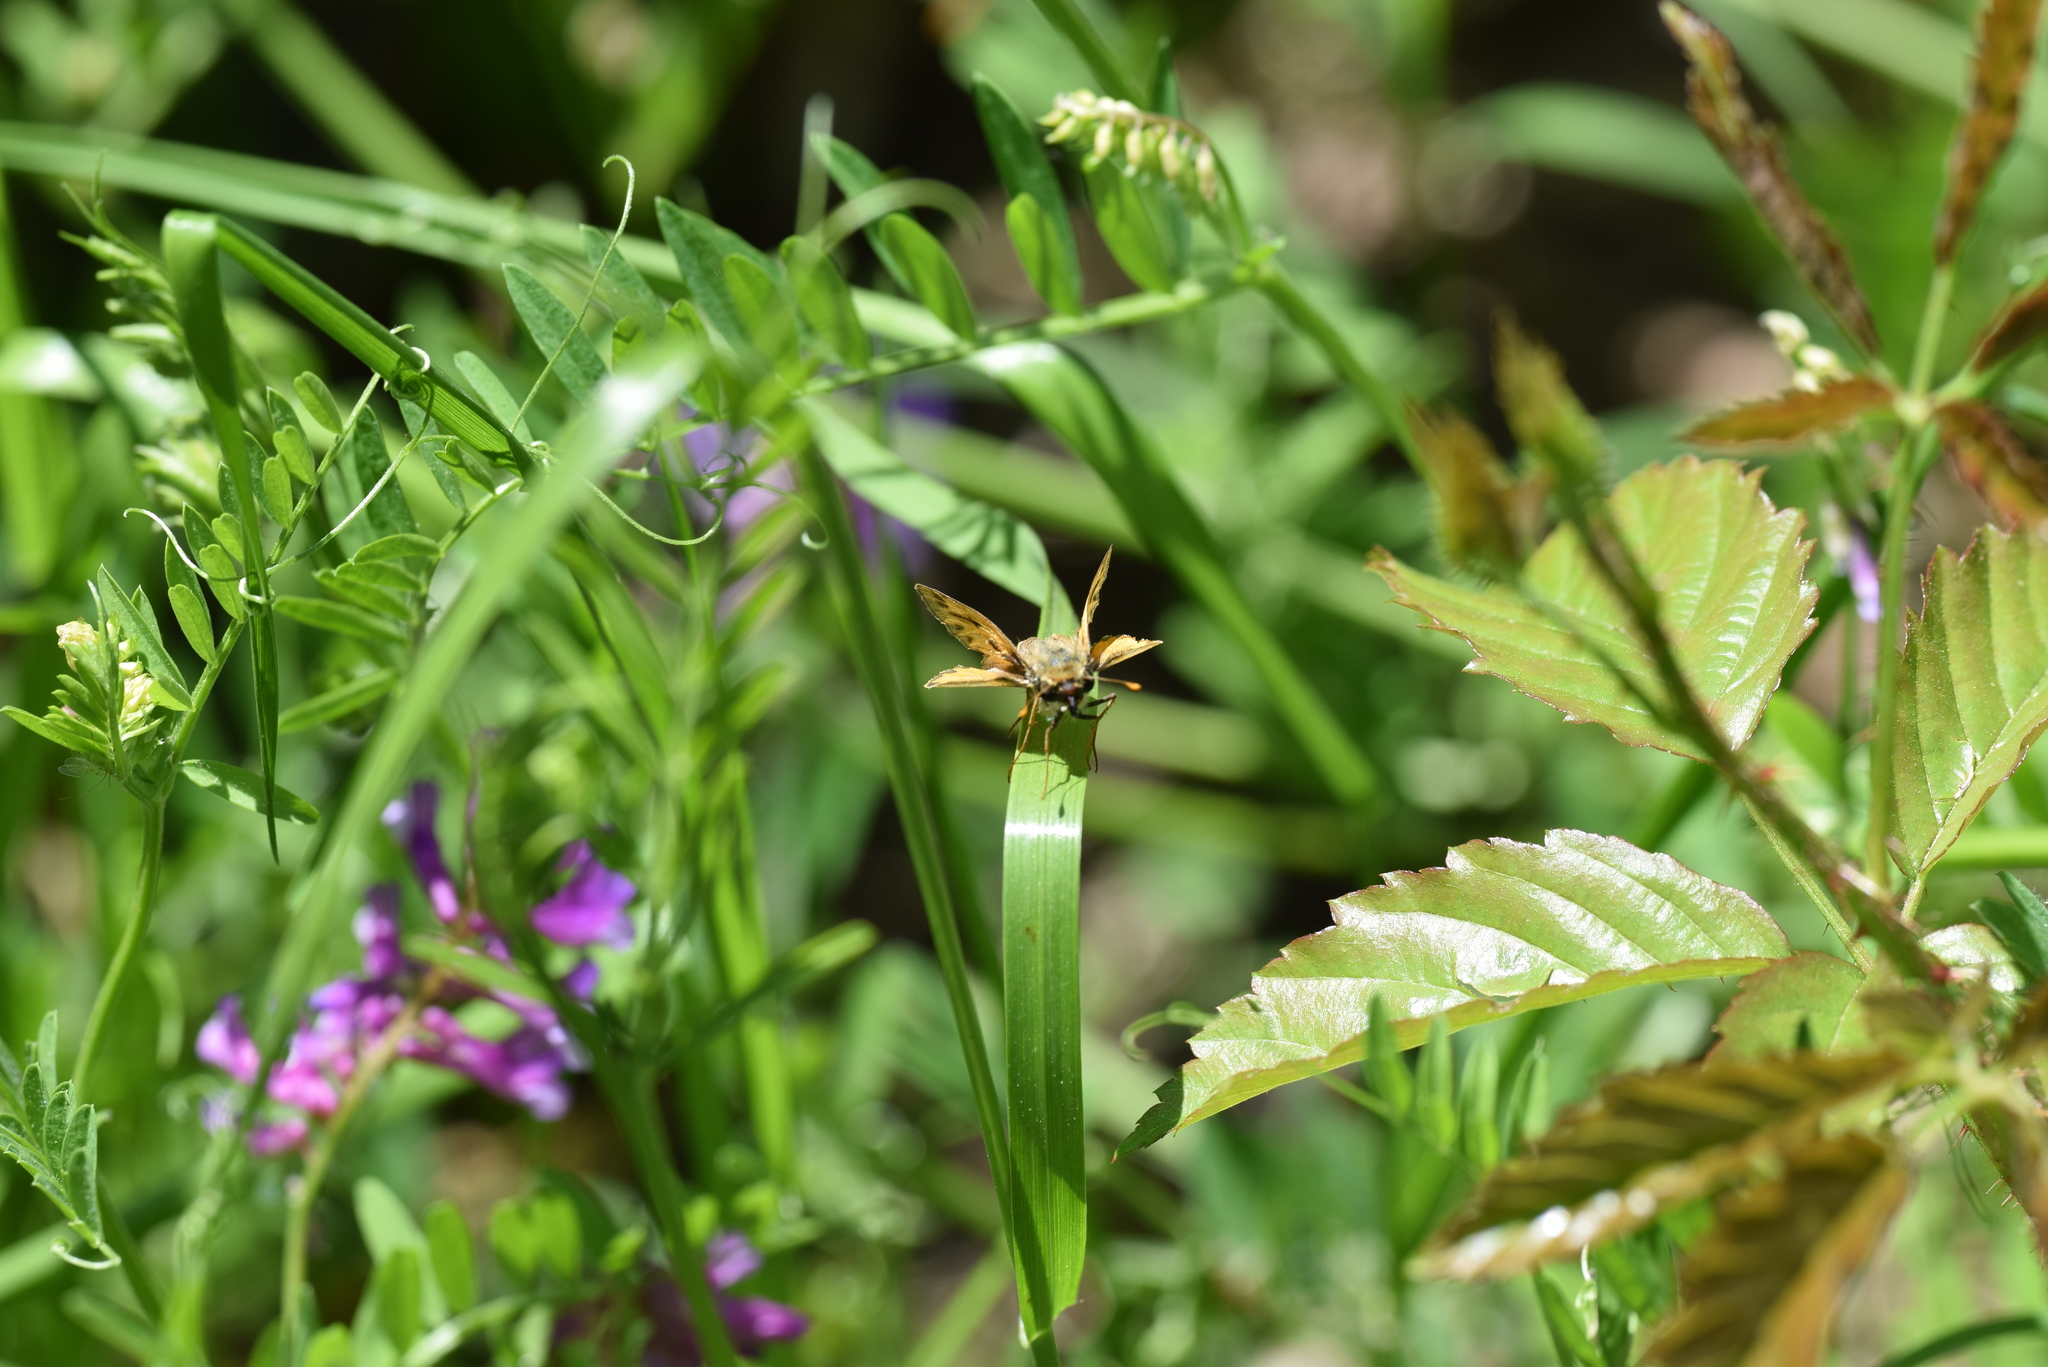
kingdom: Animalia
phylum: Arthropoda
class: Insecta
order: Lepidoptera
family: Hesperiidae
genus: Hylephila
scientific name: Hylephila phyleus
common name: Fiery skipper
